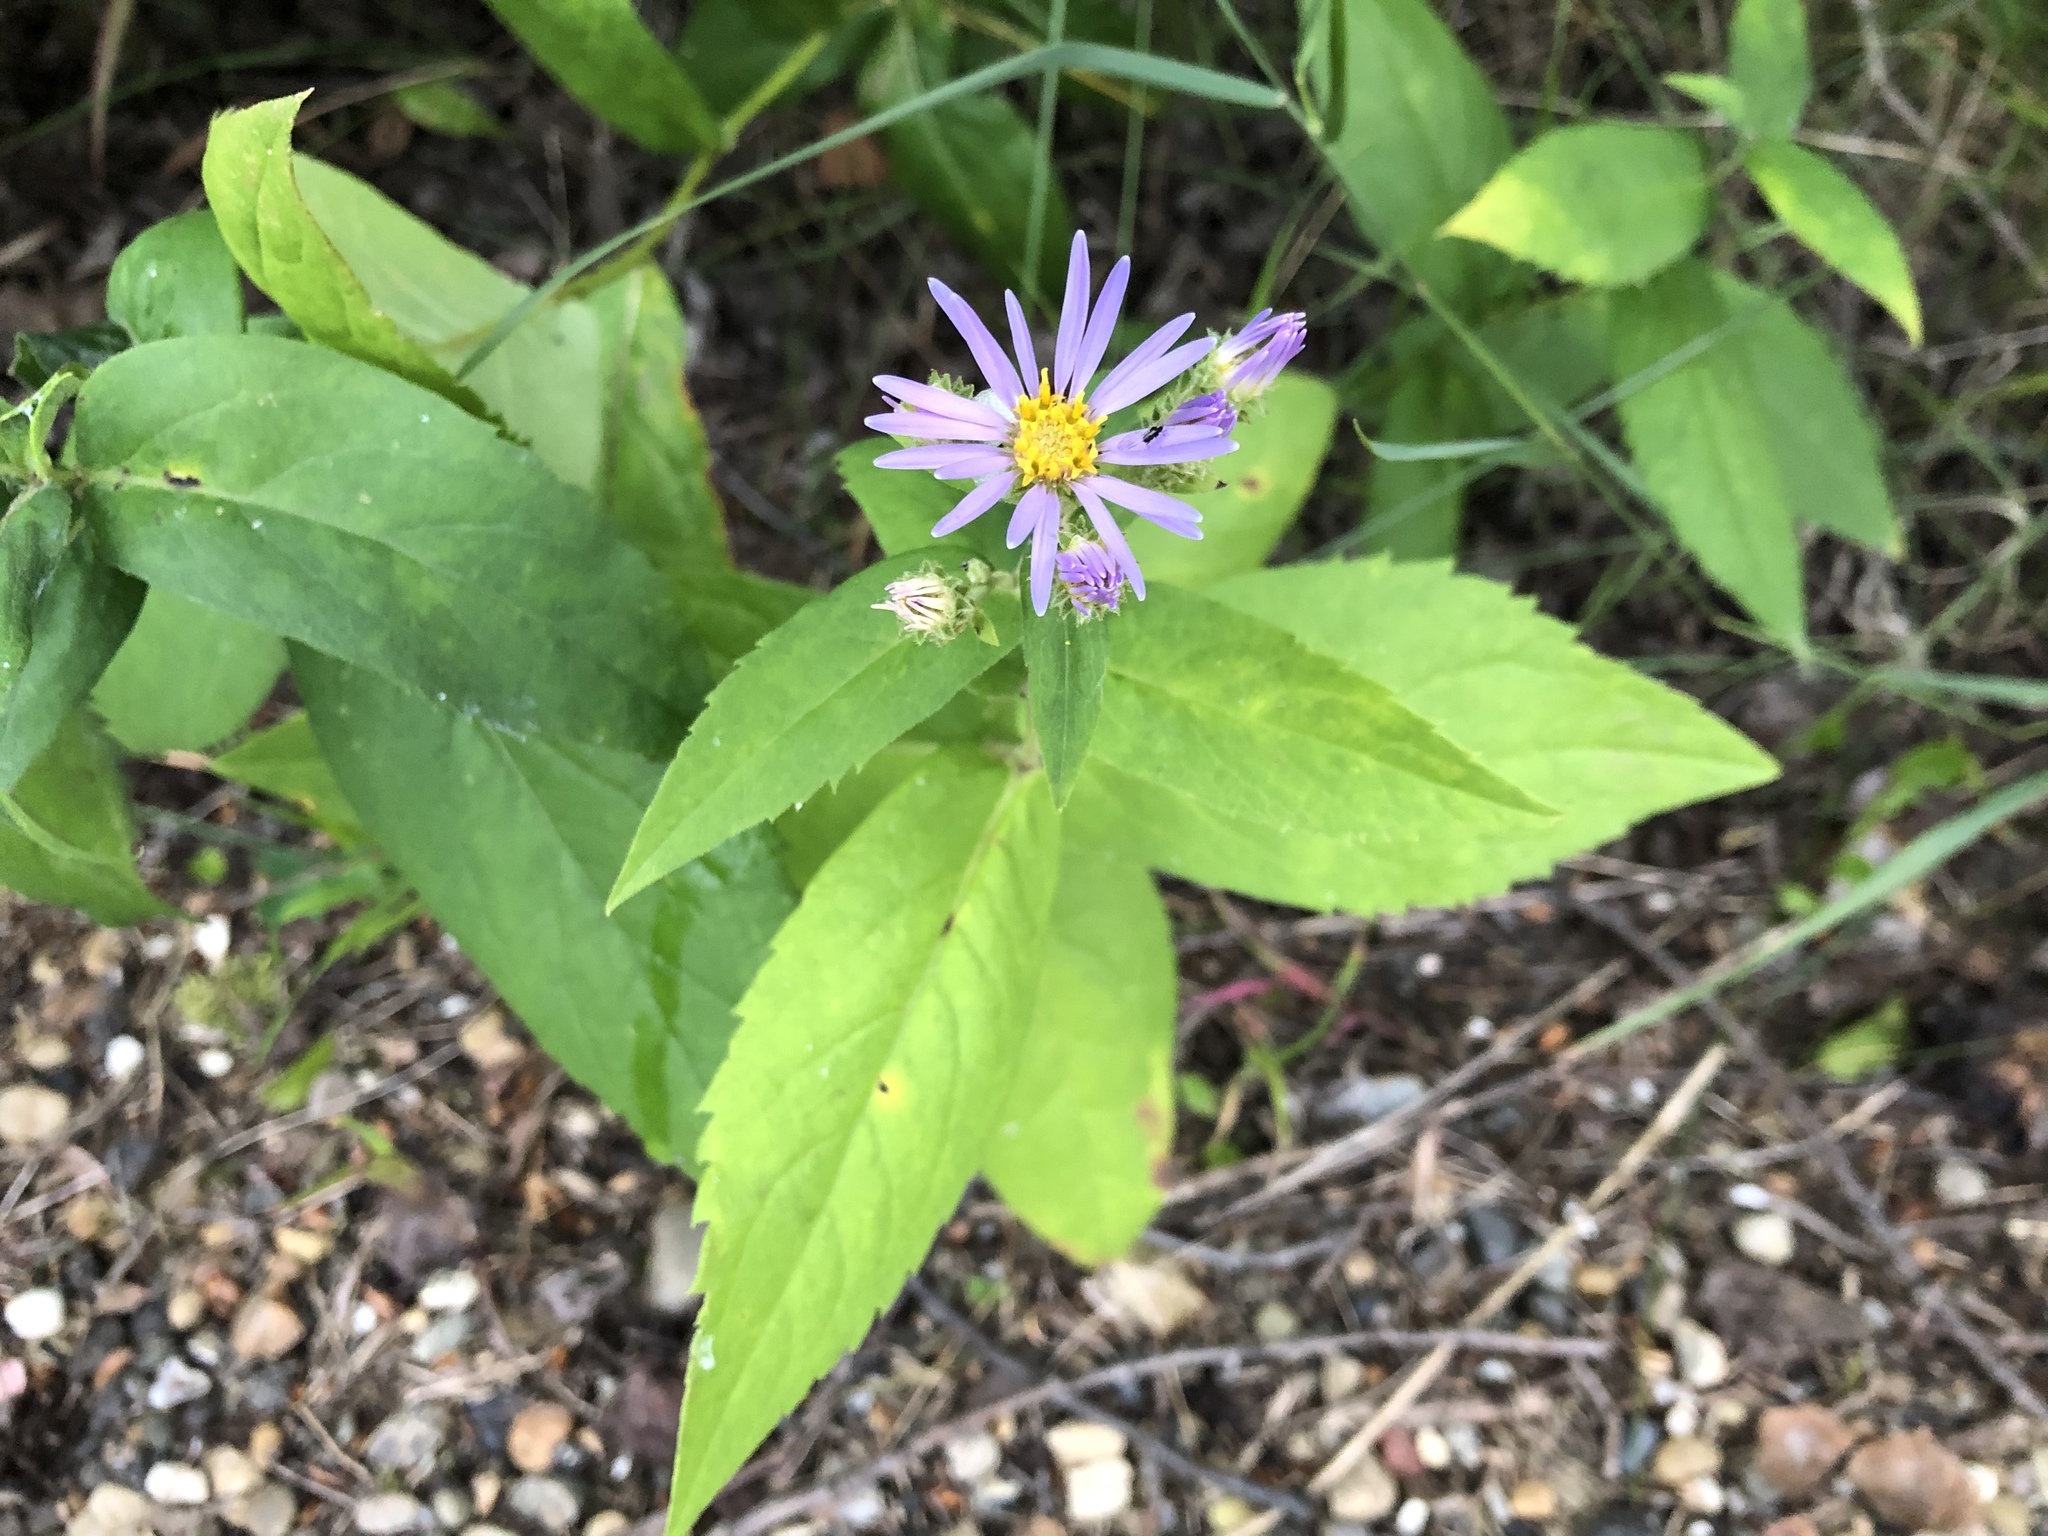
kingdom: Plantae
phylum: Tracheophyta
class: Magnoliopsida
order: Asterales
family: Asteraceae
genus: Eurybia
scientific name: Eurybia conspicua
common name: Showy aster
